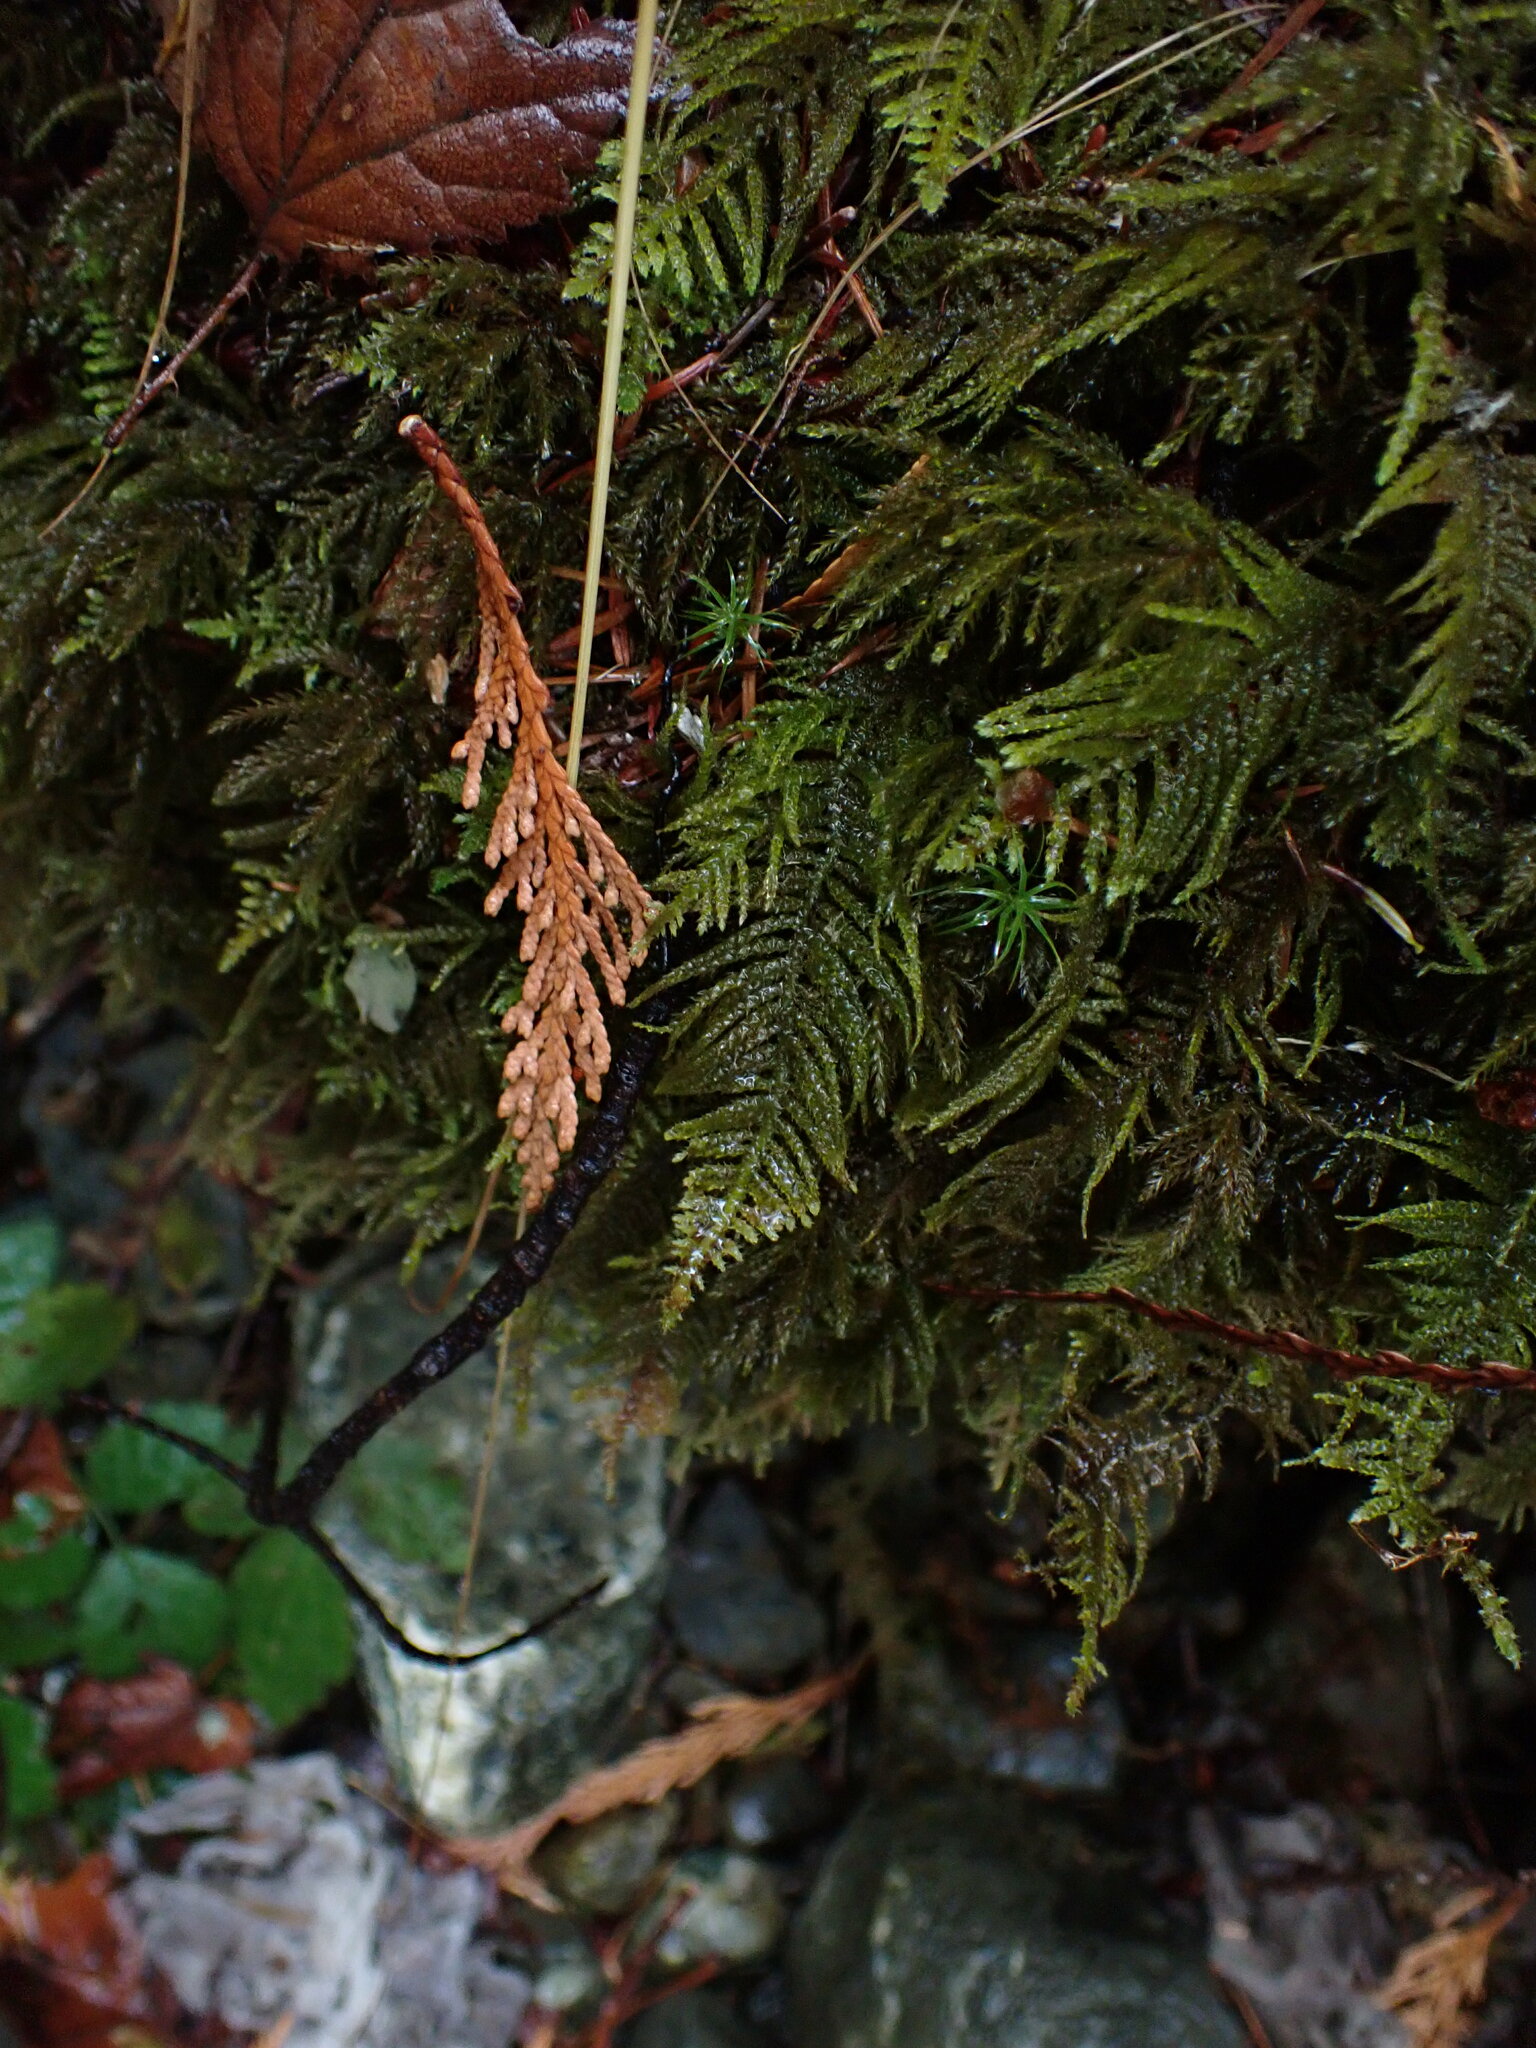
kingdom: Plantae
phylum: Bryophyta
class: Bryopsida
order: Hypnales
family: Brachytheciaceae
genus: Kindbergia
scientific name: Kindbergia oregana
